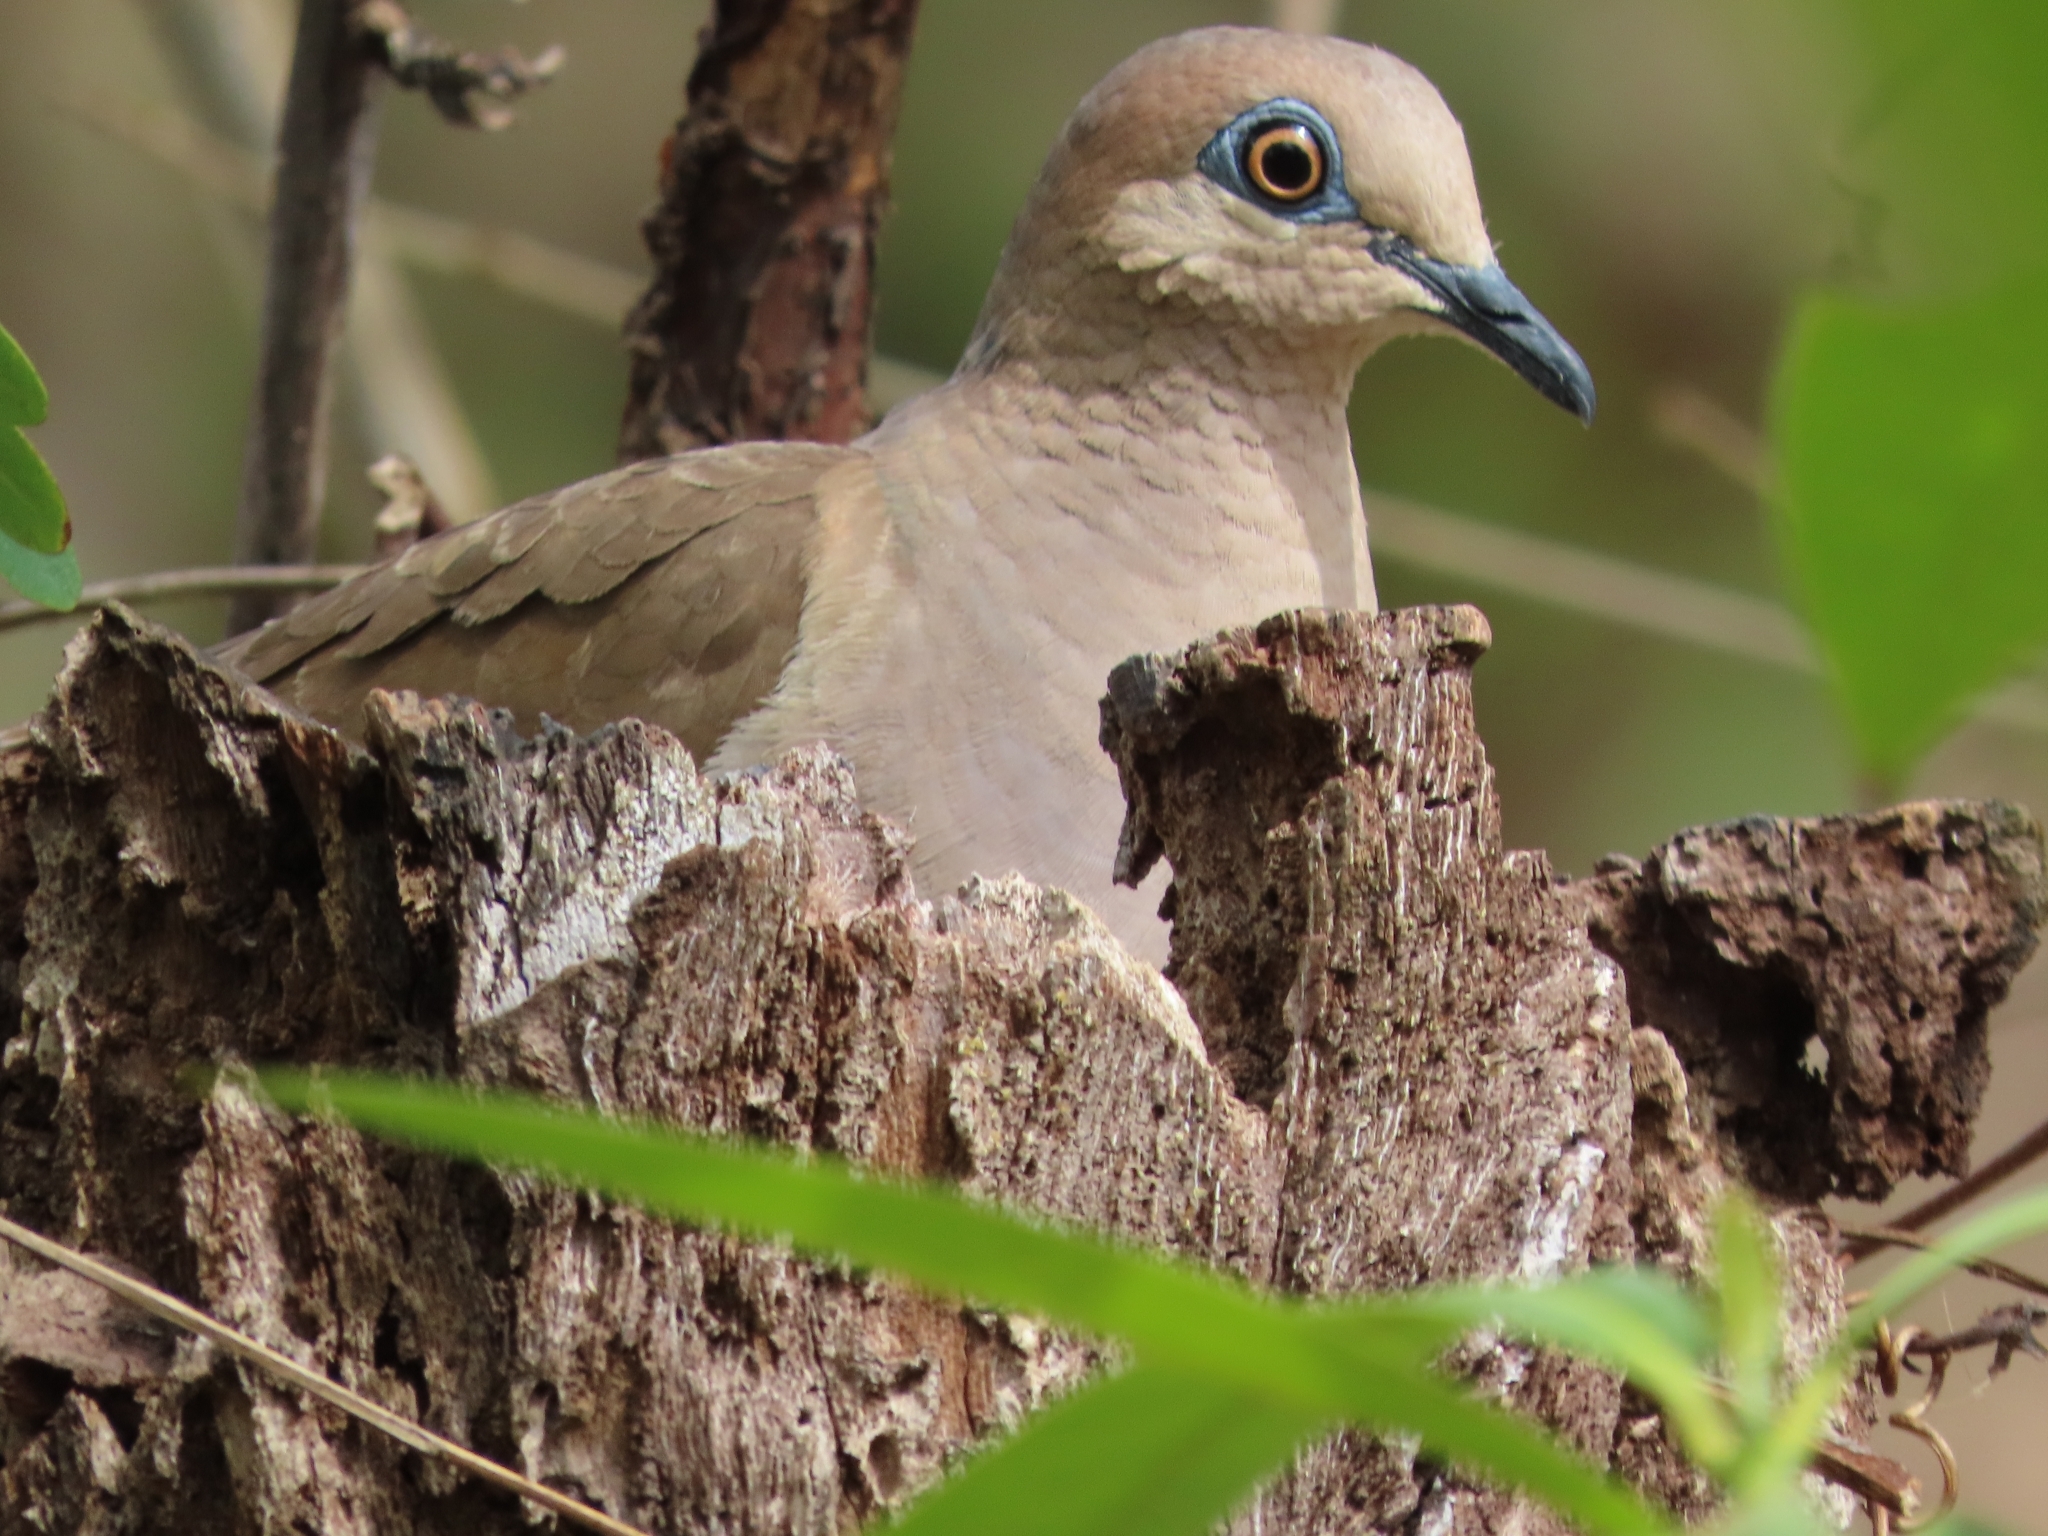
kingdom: Animalia
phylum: Chordata
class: Aves
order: Columbiformes
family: Columbidae
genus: Leptotila
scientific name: Leptotila verreauxi
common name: White-tipped dove
